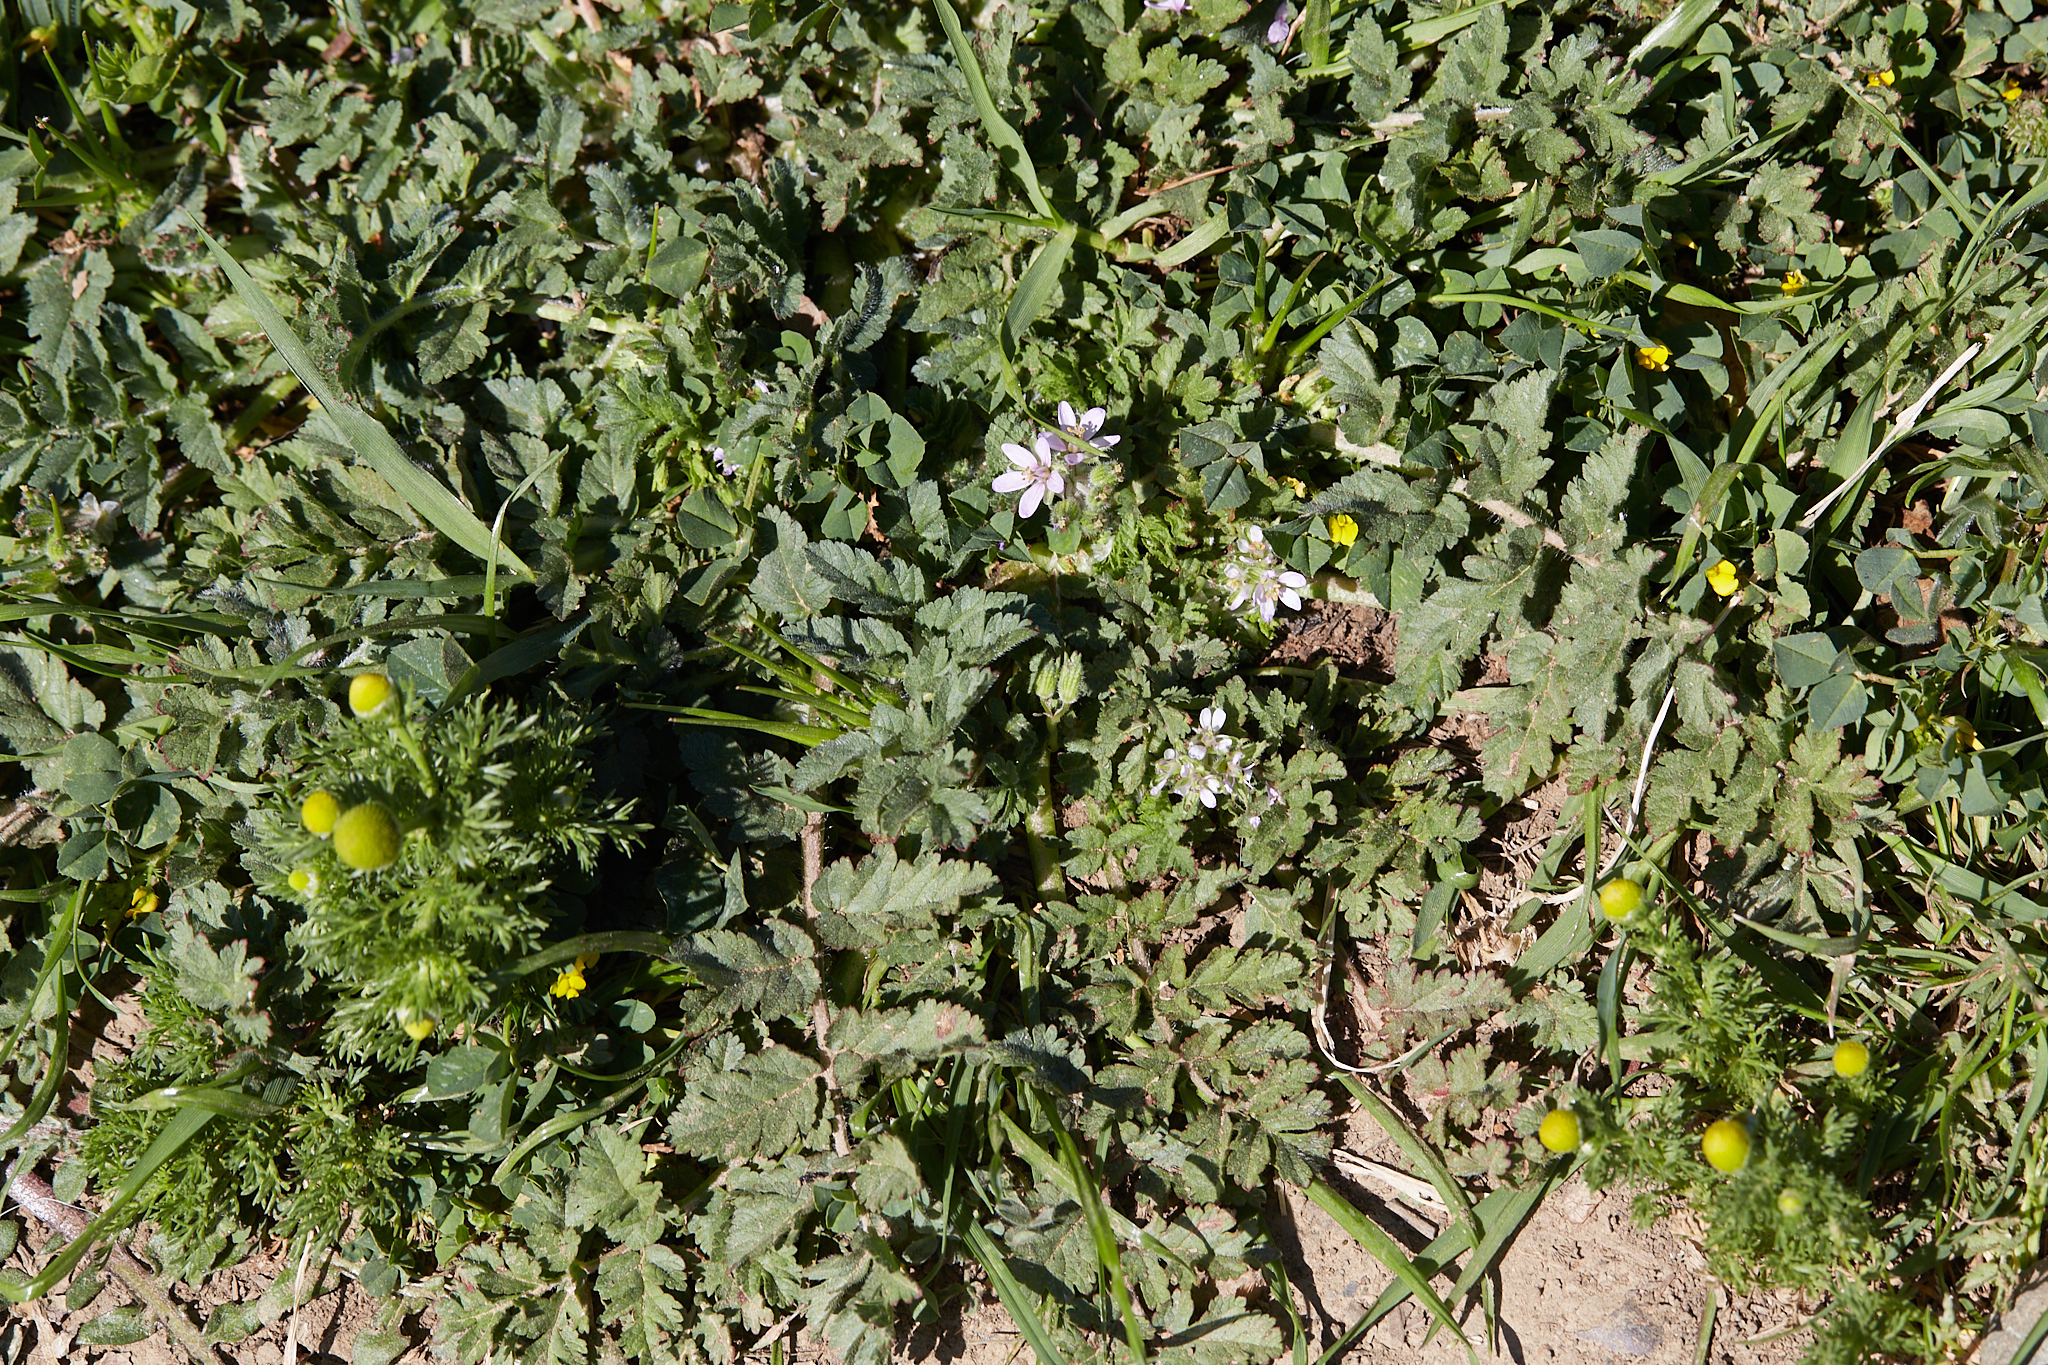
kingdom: Plantae
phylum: Tracheophyta
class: Magnoliopsida
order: Geraniales
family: Geraniaceae
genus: Erodium
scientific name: Erodium moschatum
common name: Musk stork's-bill
